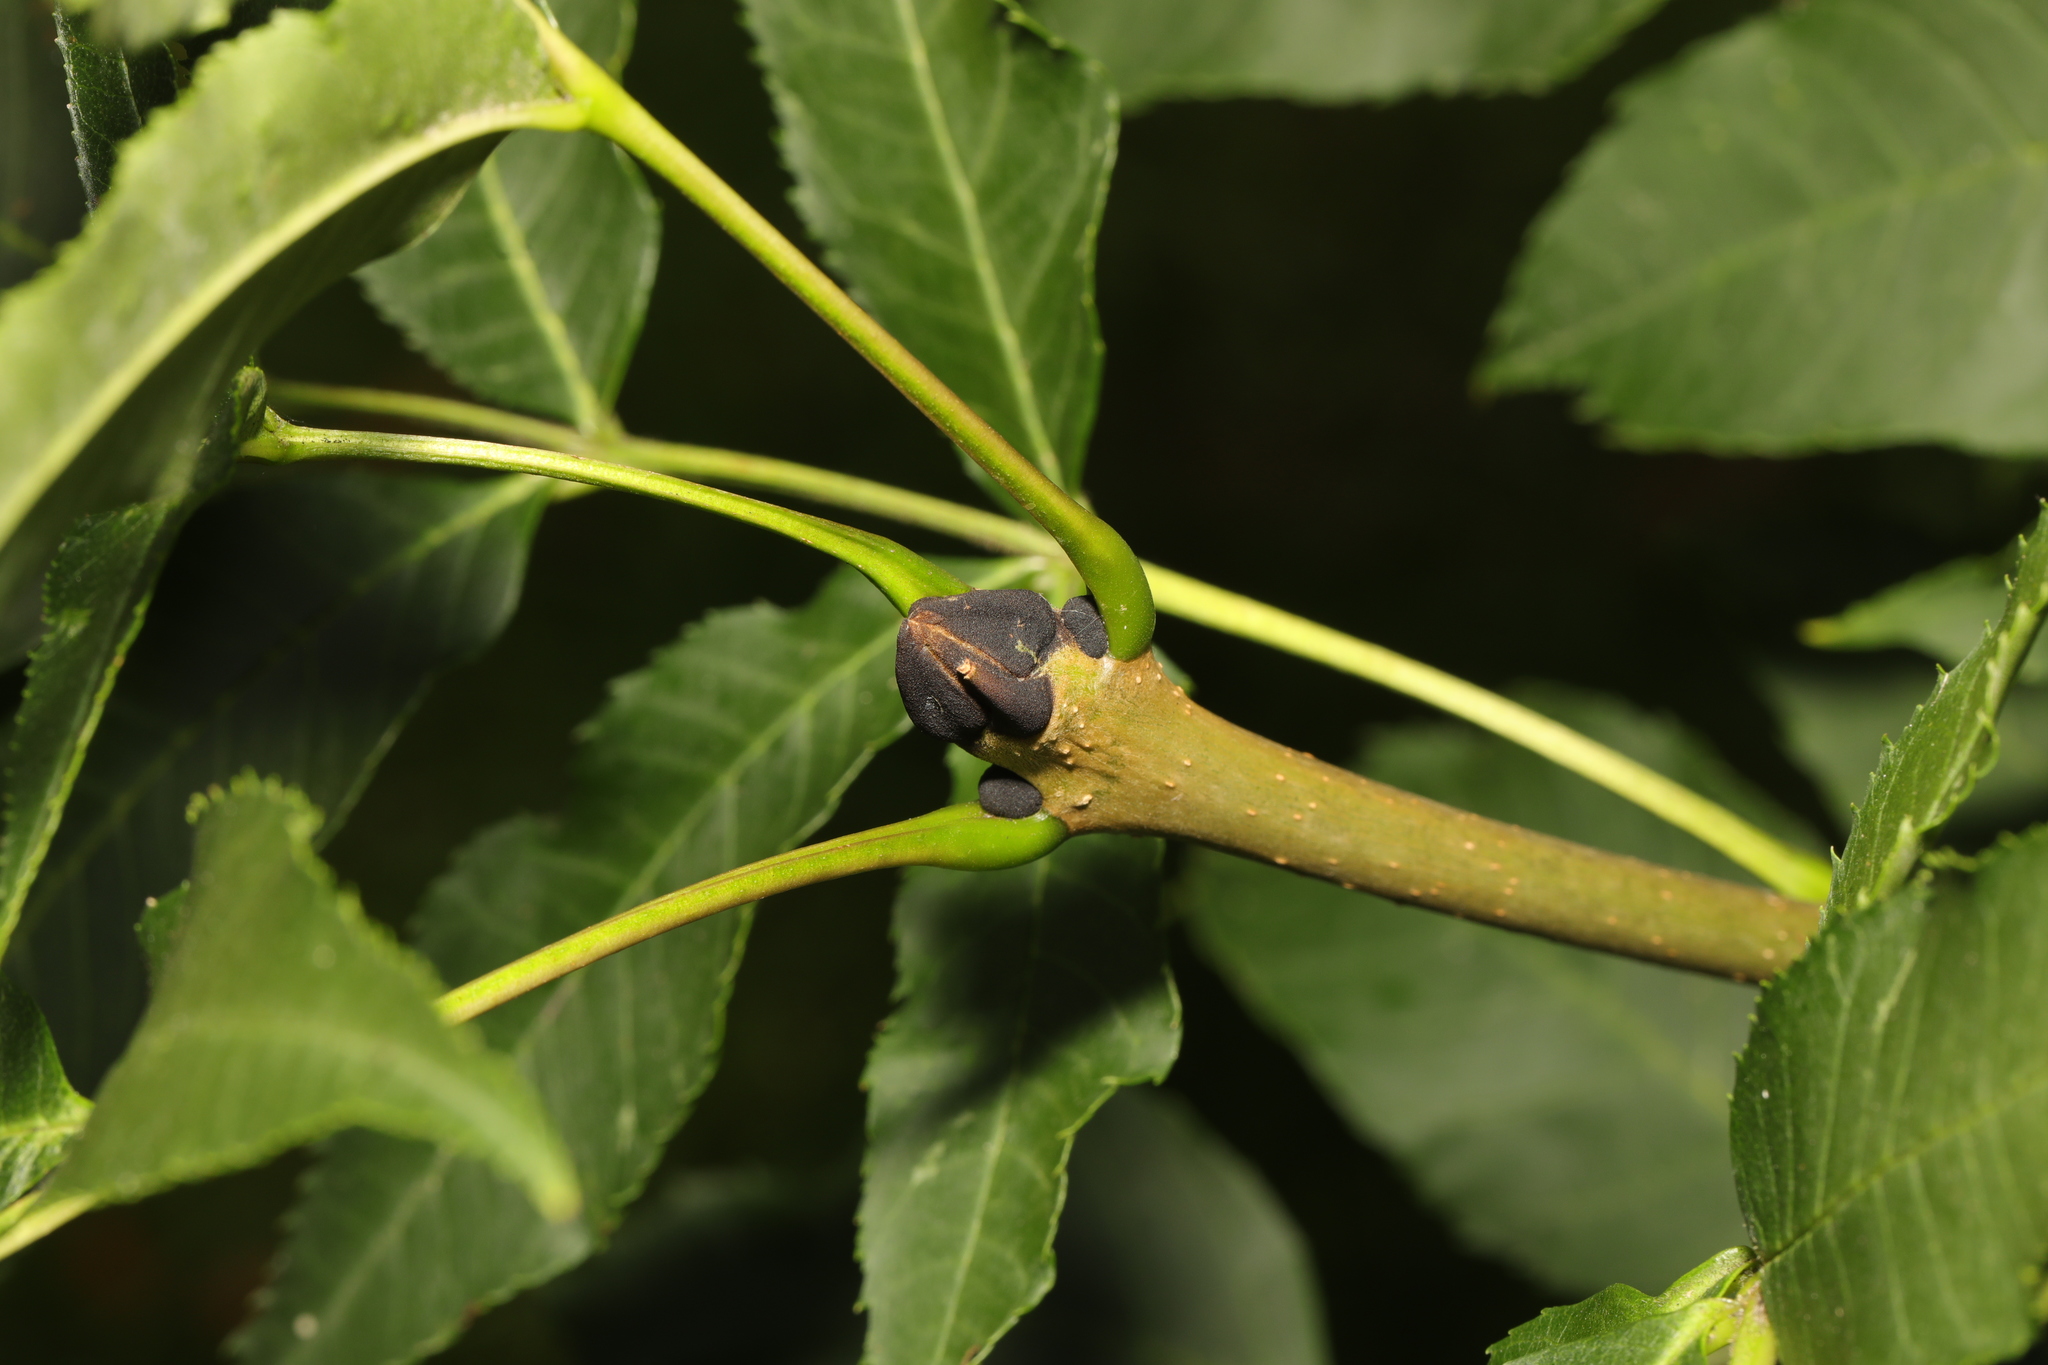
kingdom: Plantae
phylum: Tracheophyta
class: Magnoliopsida
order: Lamiales
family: Oleaceae
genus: Fraxinus
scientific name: Fraxinus excelsior
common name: European ash
